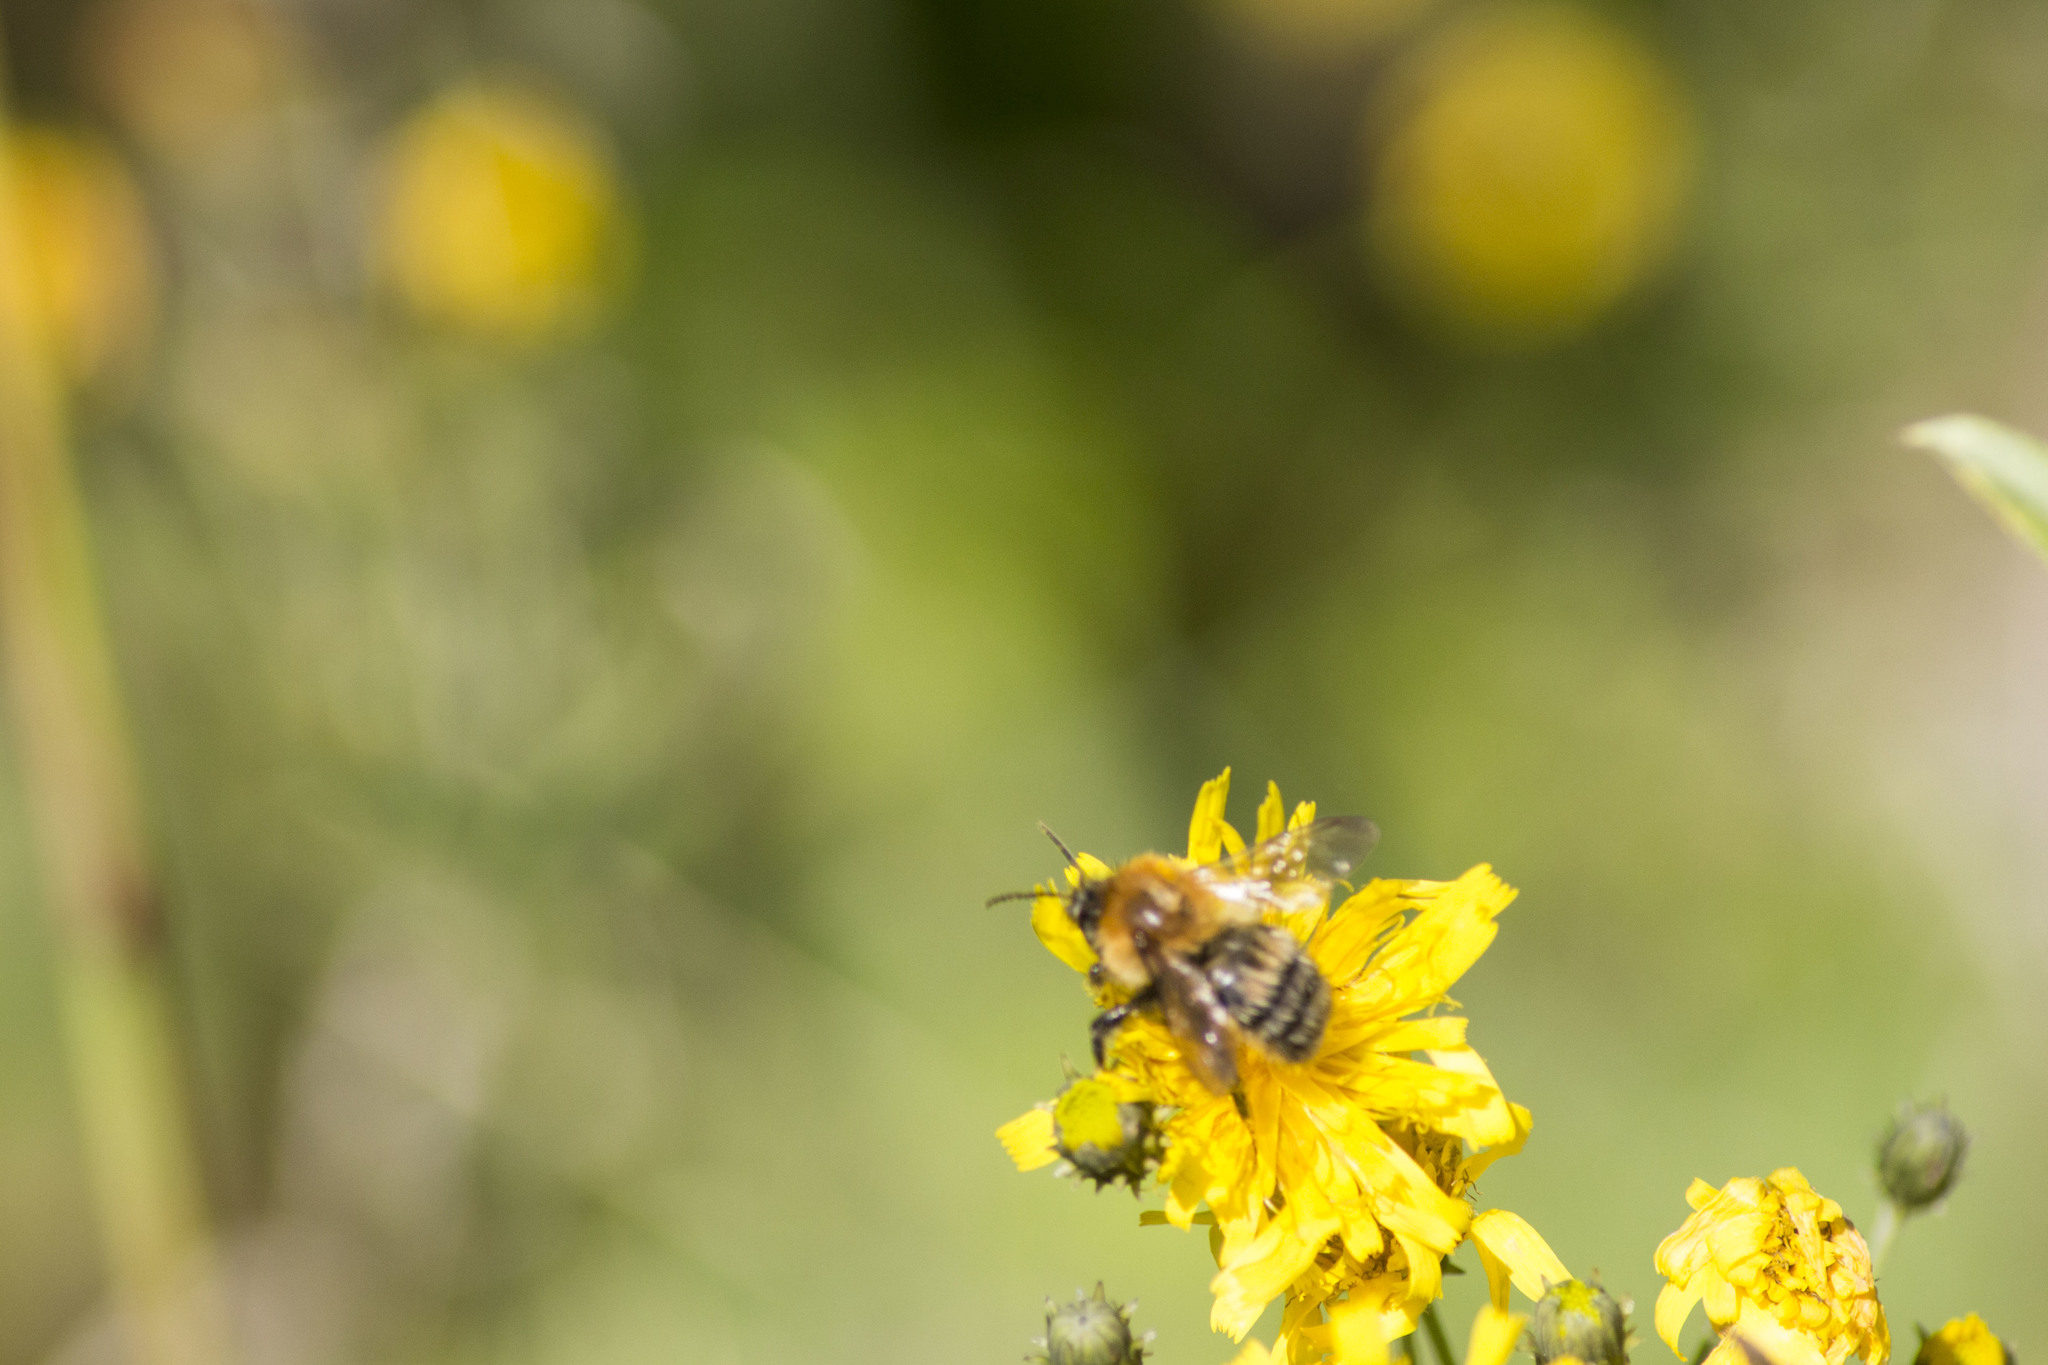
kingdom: Animalia
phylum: Arthropoda
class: Insecta
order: Hymenoptera
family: Apidae
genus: Bombus
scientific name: Bombus schrencki
